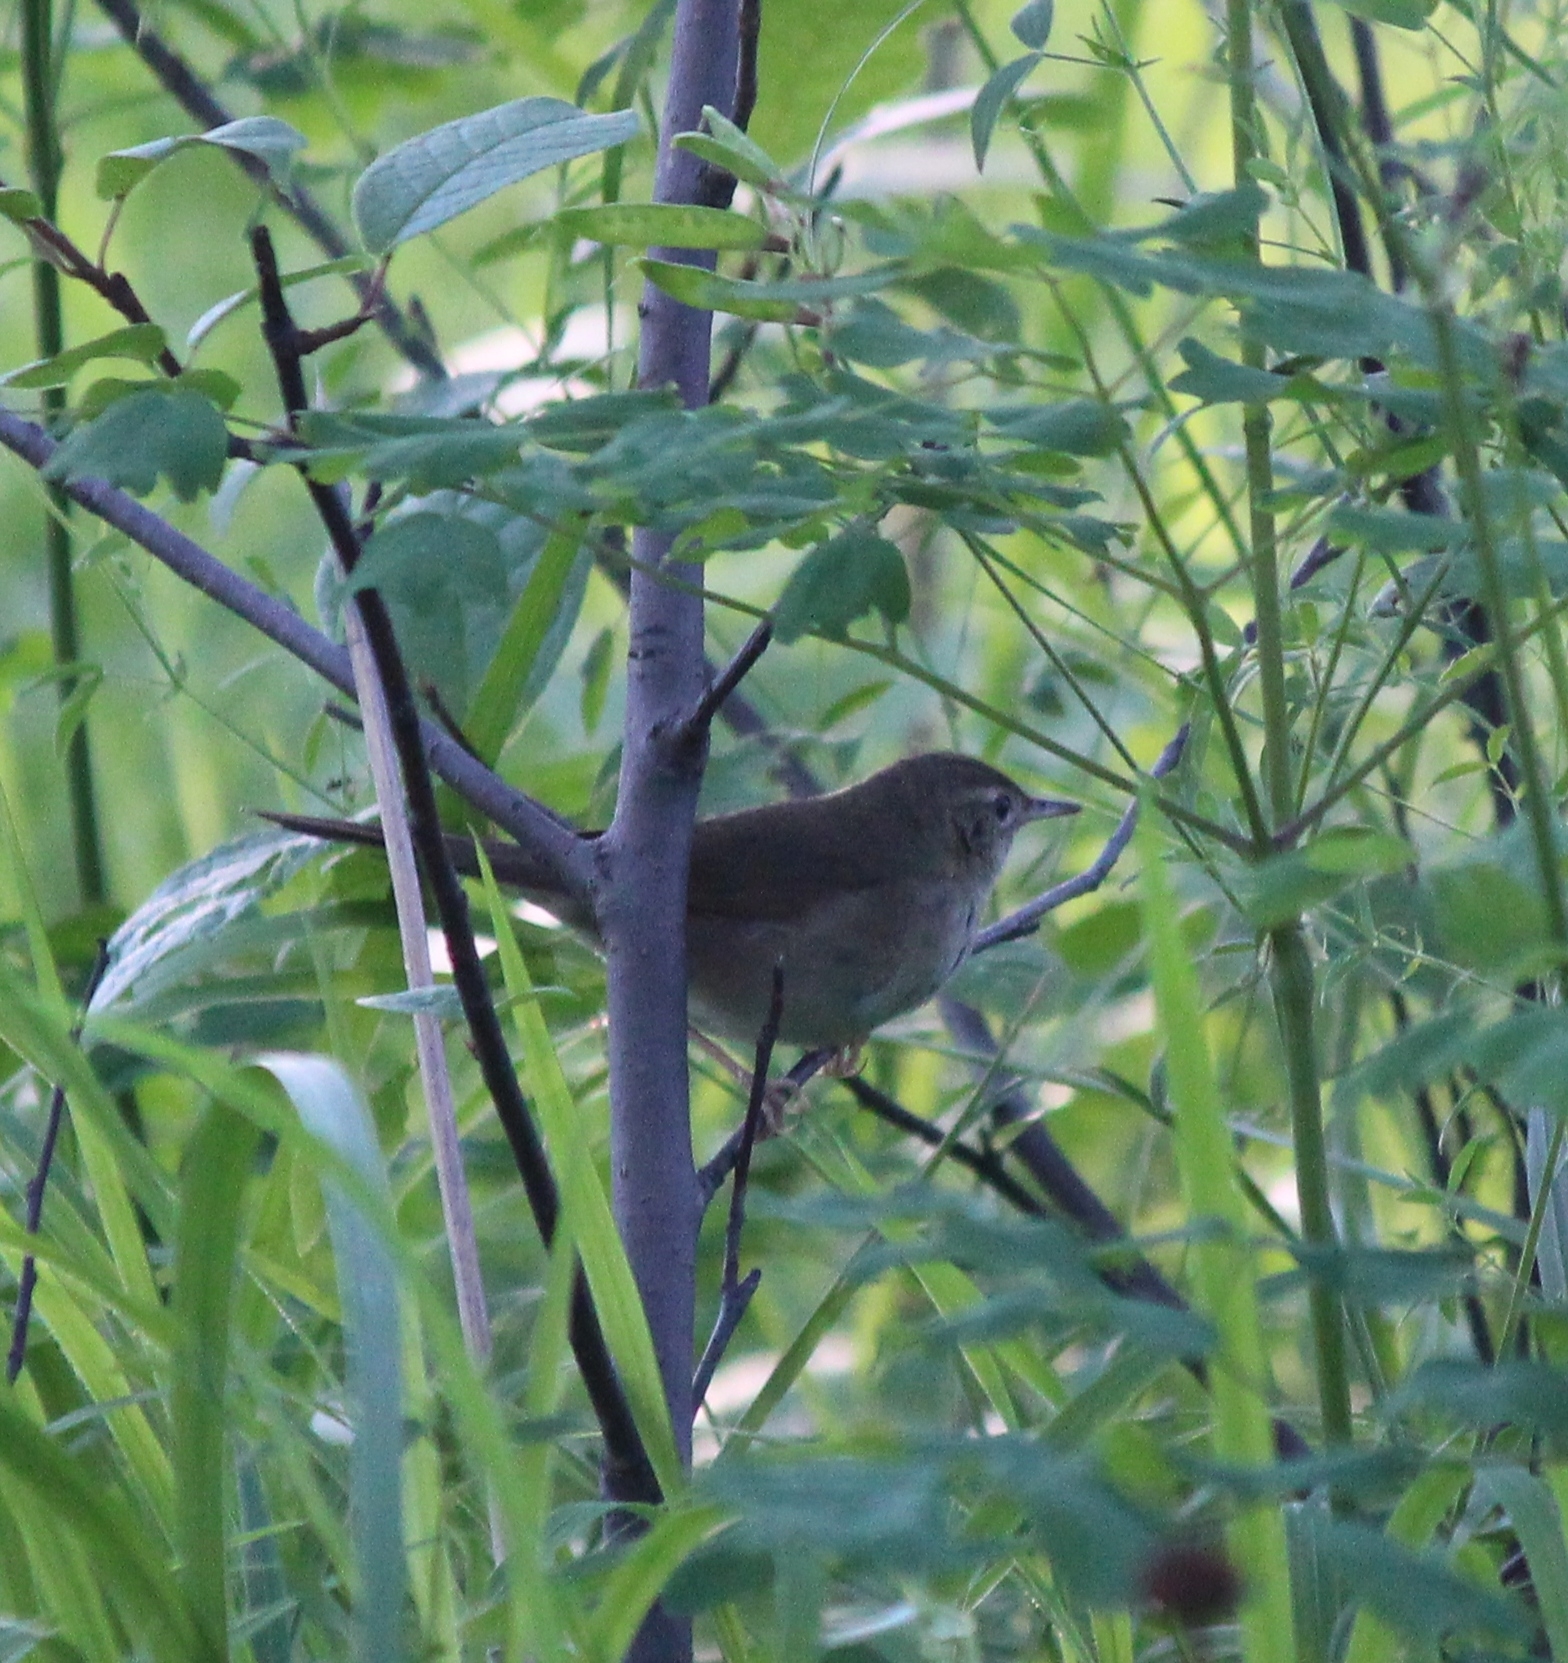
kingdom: Animalia
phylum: Chordata
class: Aves
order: Passeriformes
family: Locustellidae
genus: Helopsaltes
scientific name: Helopsaltes fasciolatus
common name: Gray's grasshopper warbler
